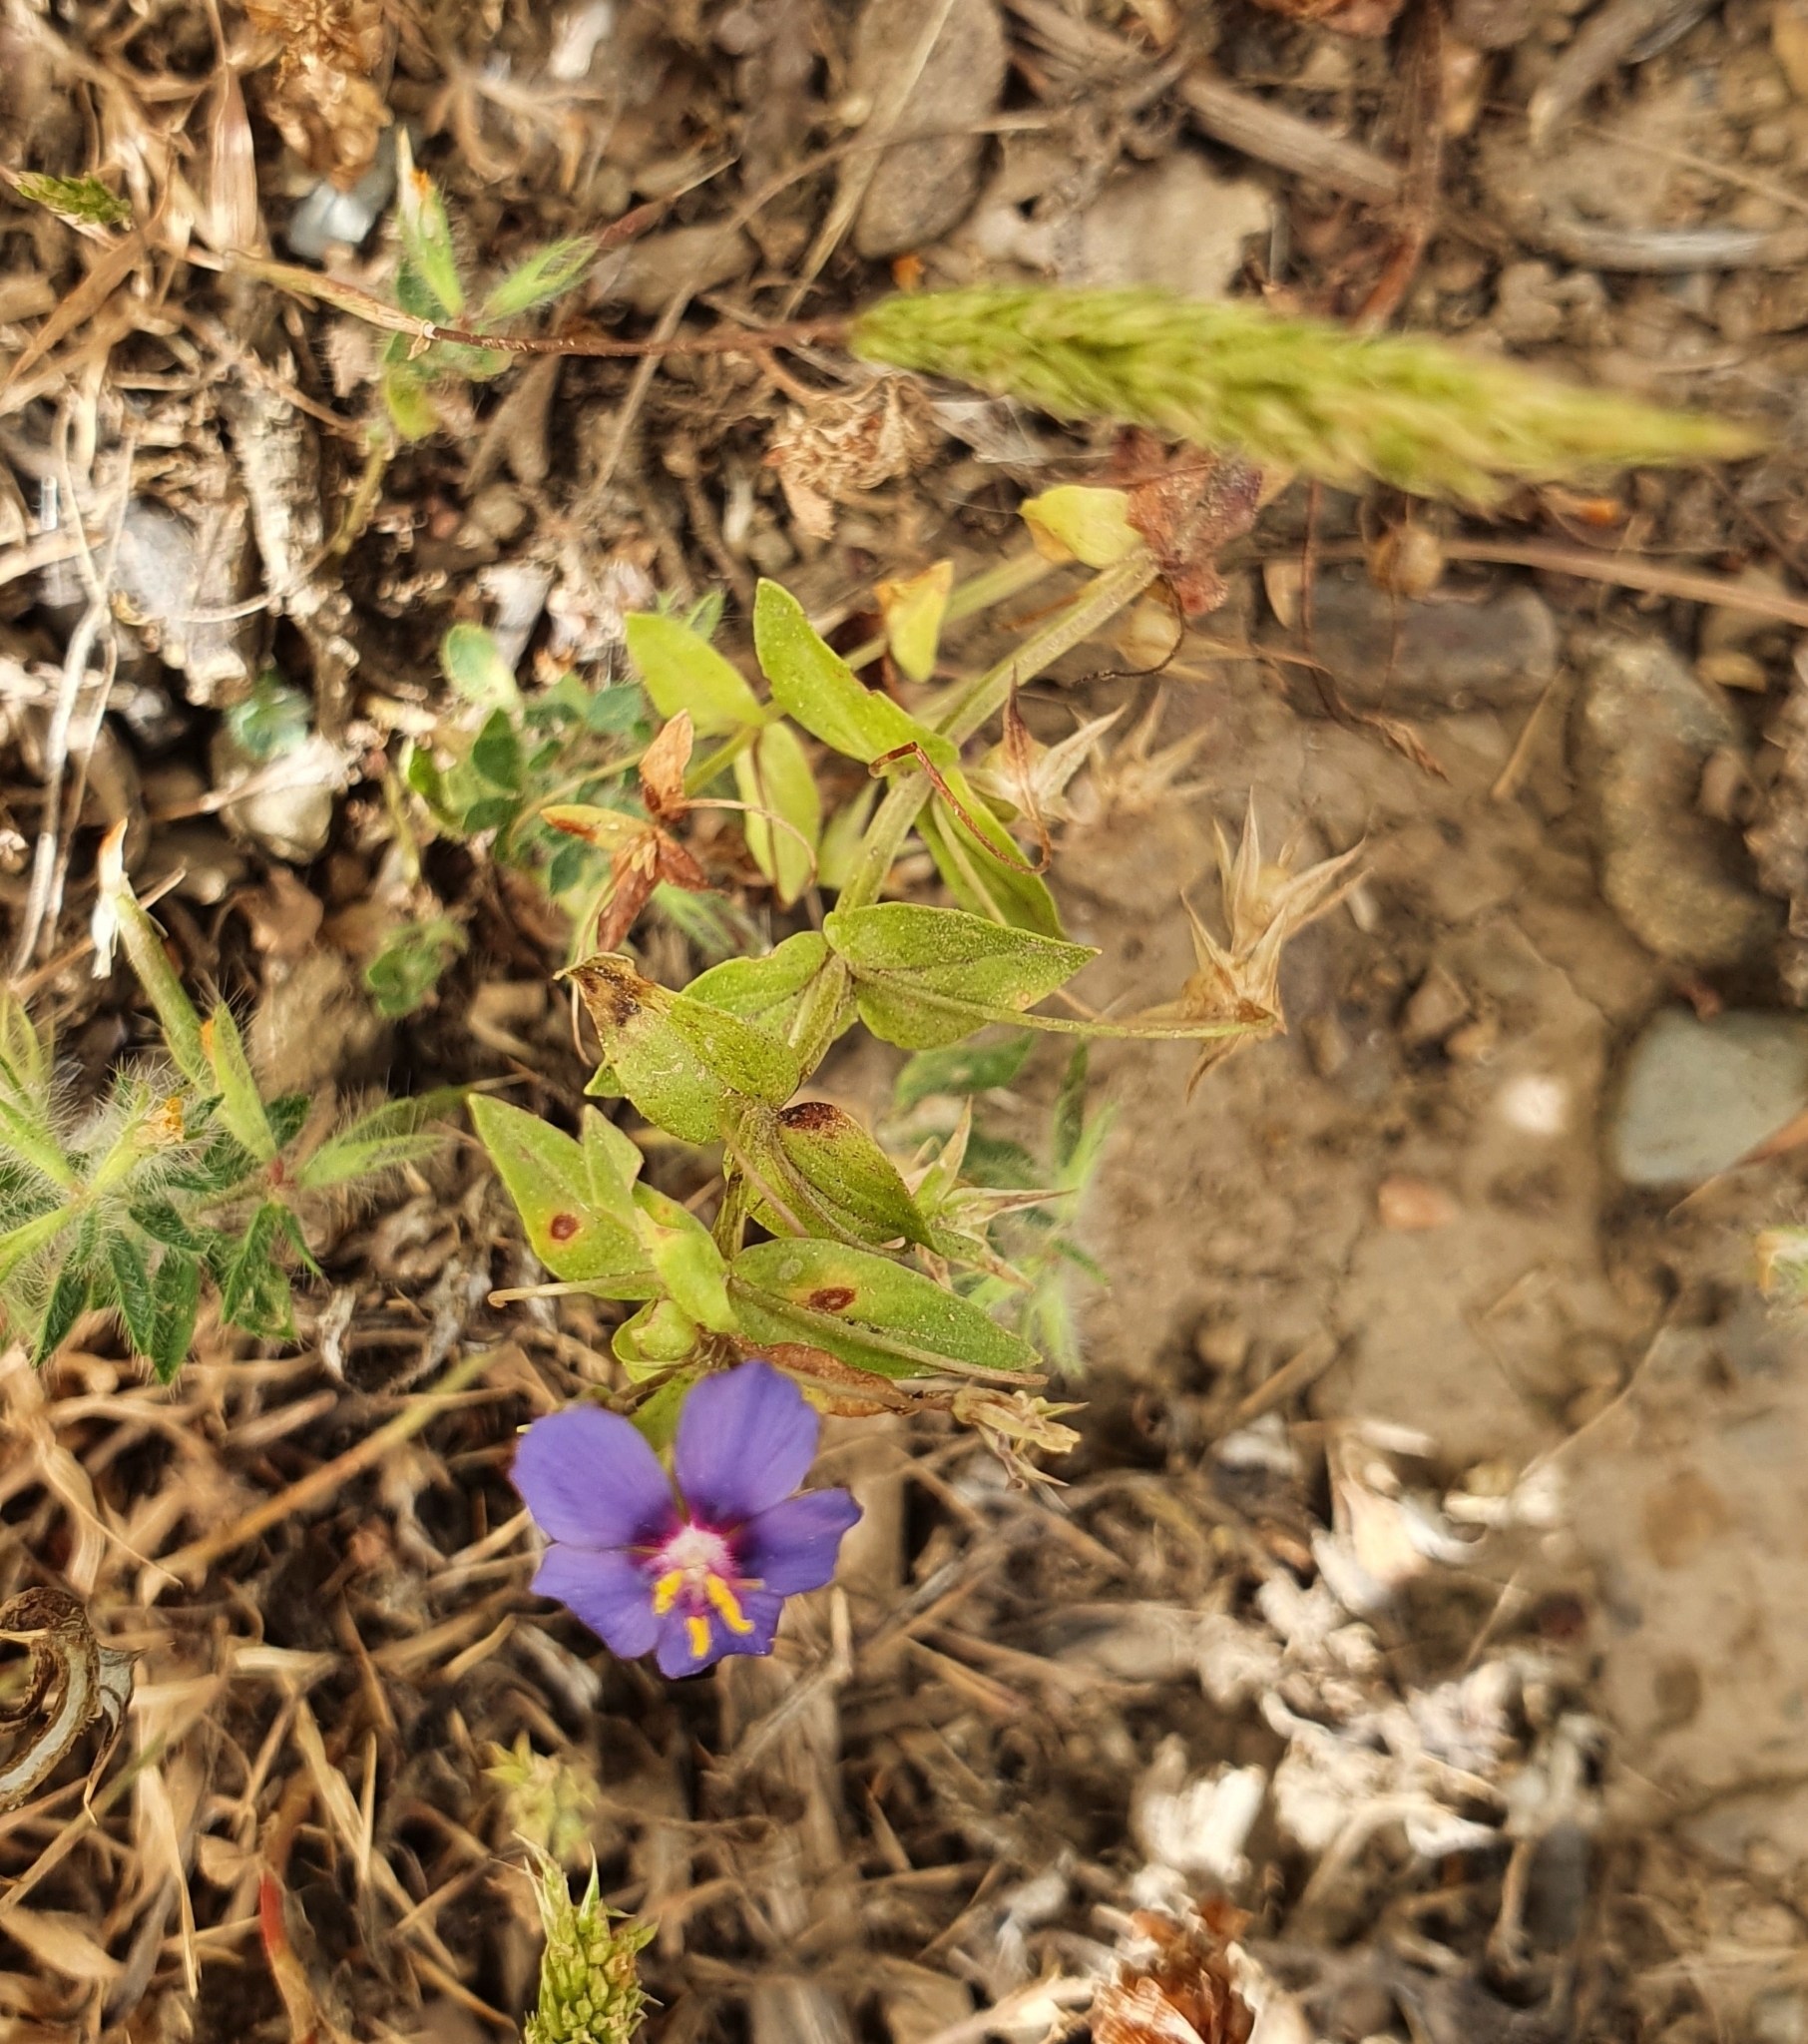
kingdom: Plantae
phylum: Tracheophyta
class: Magnoliopsida
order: Ericales
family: Primulaceae
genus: Lysimachia
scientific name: Lysimachia loeflingii
